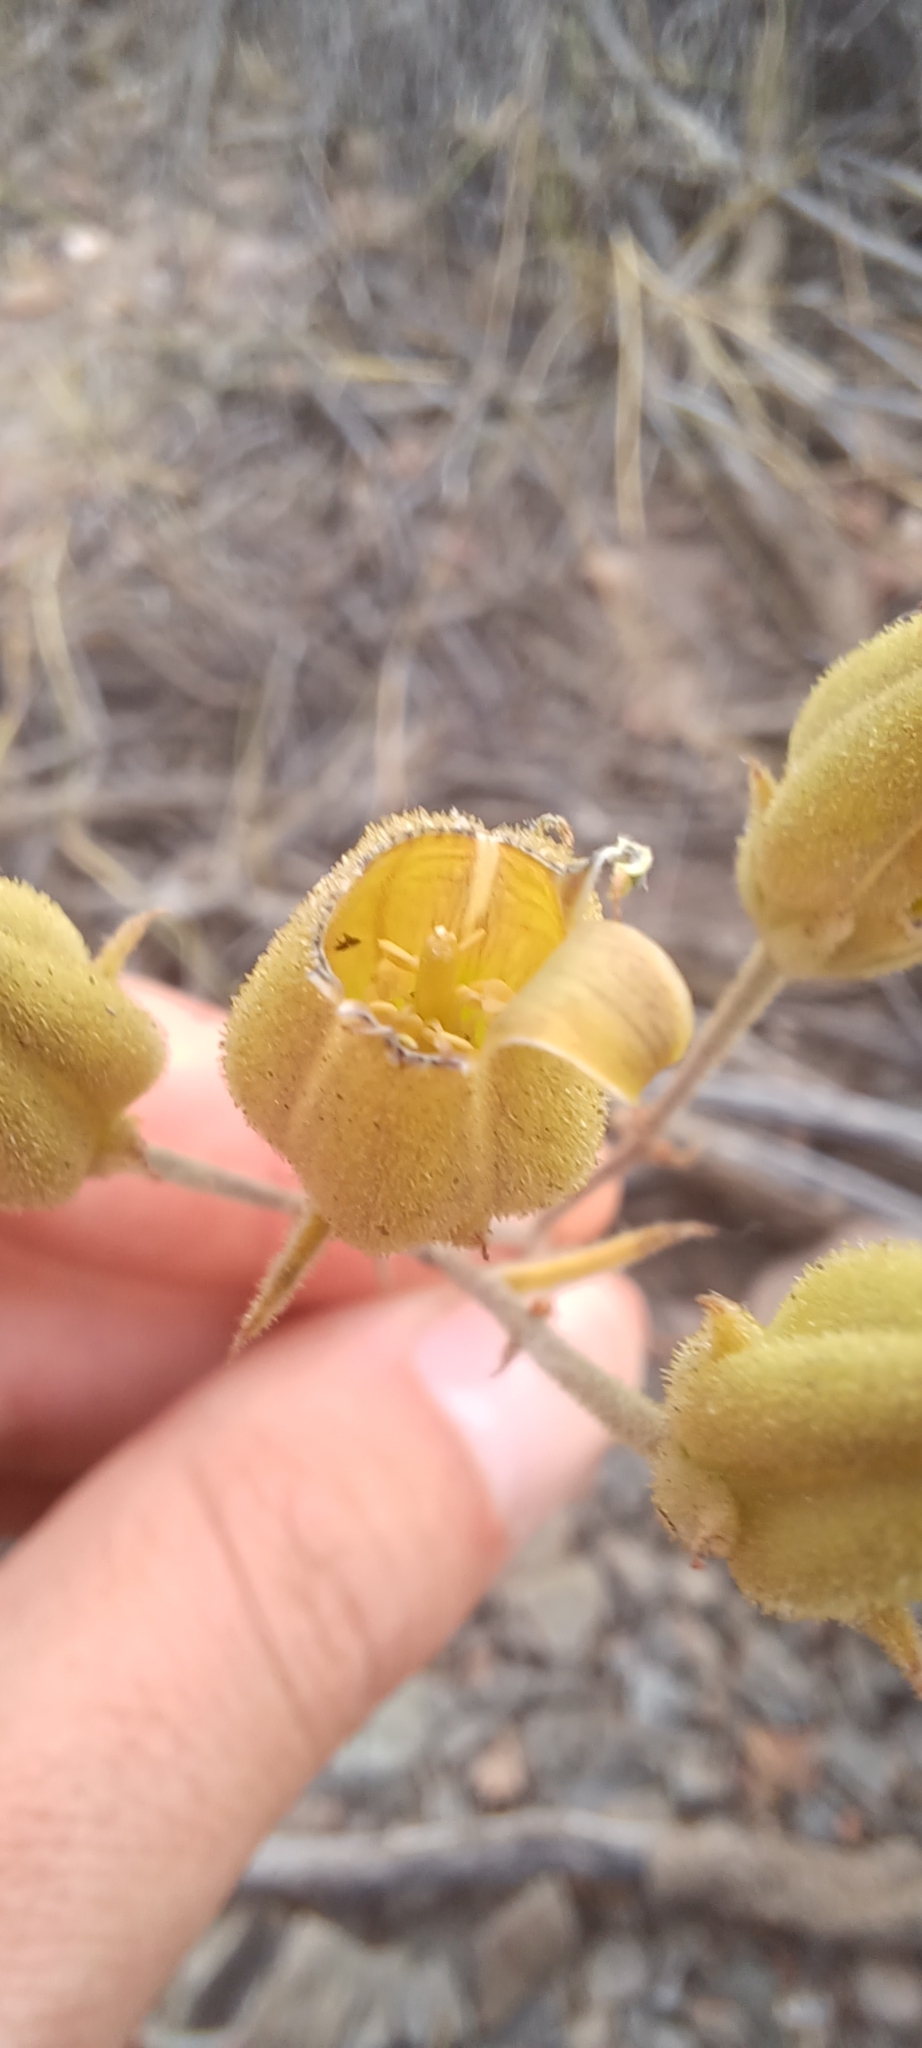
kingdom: Plantae
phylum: Tracheophyta
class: Magnoliopsida
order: Saxifragales
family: Crassulaceae
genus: Tylecodon
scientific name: Tylecodon ventricosus
